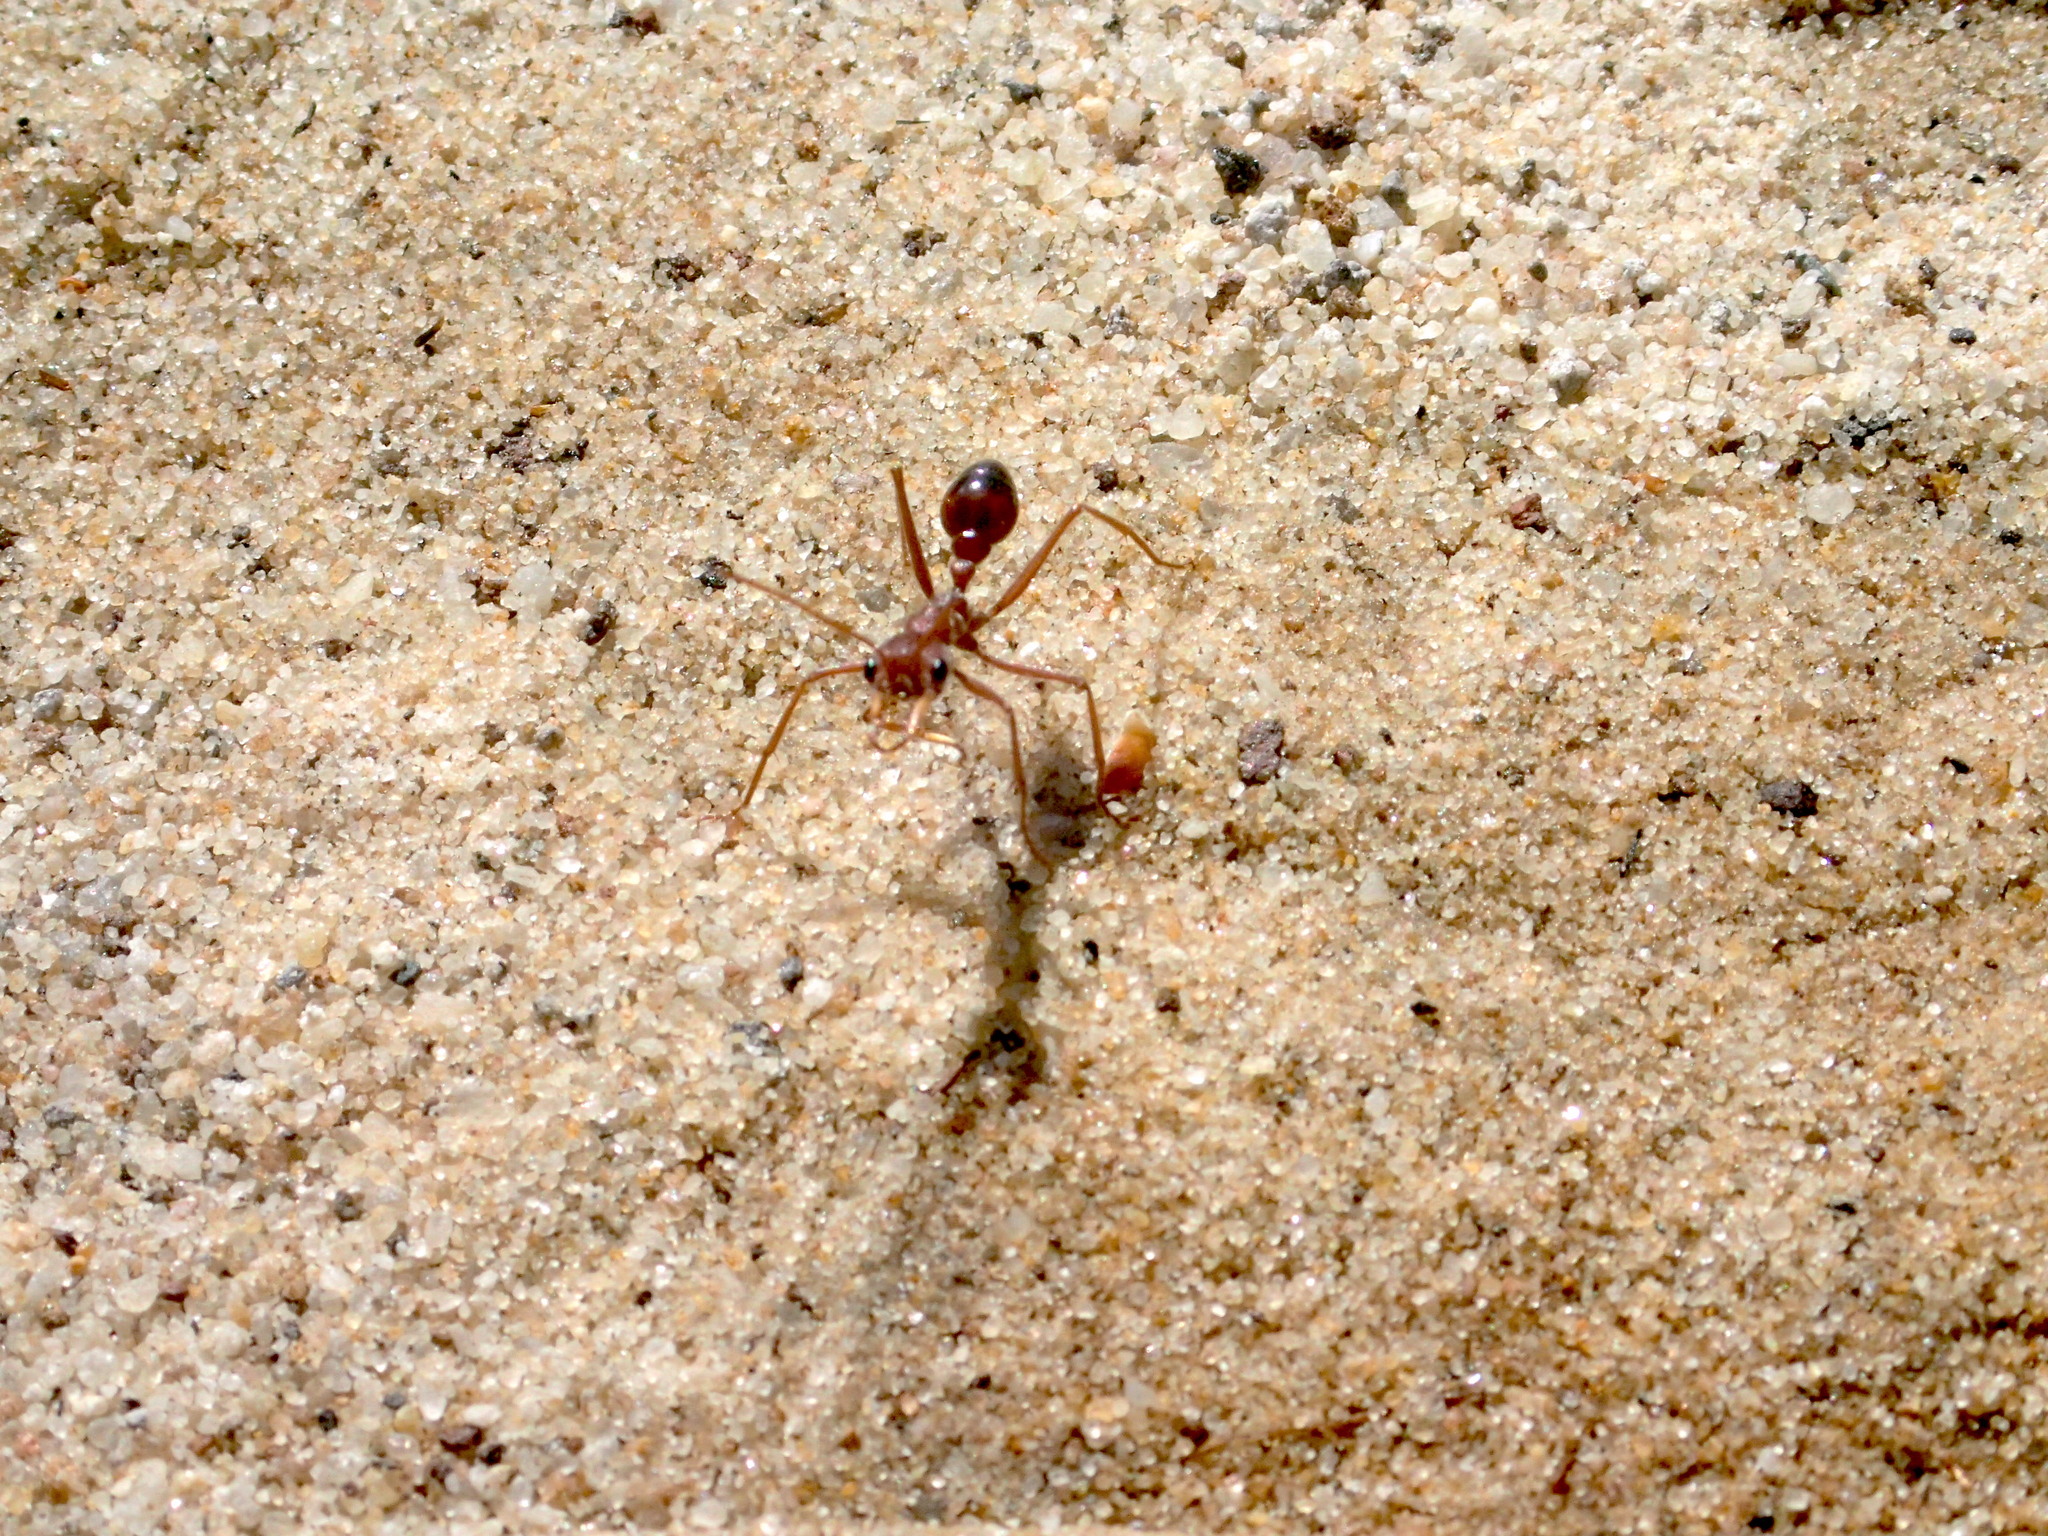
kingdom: Animalia
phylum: Arthropoda
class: Insecta
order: Hymenoptera
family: Formicidae
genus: Myrmecia
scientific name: Myrmecia gulosa
